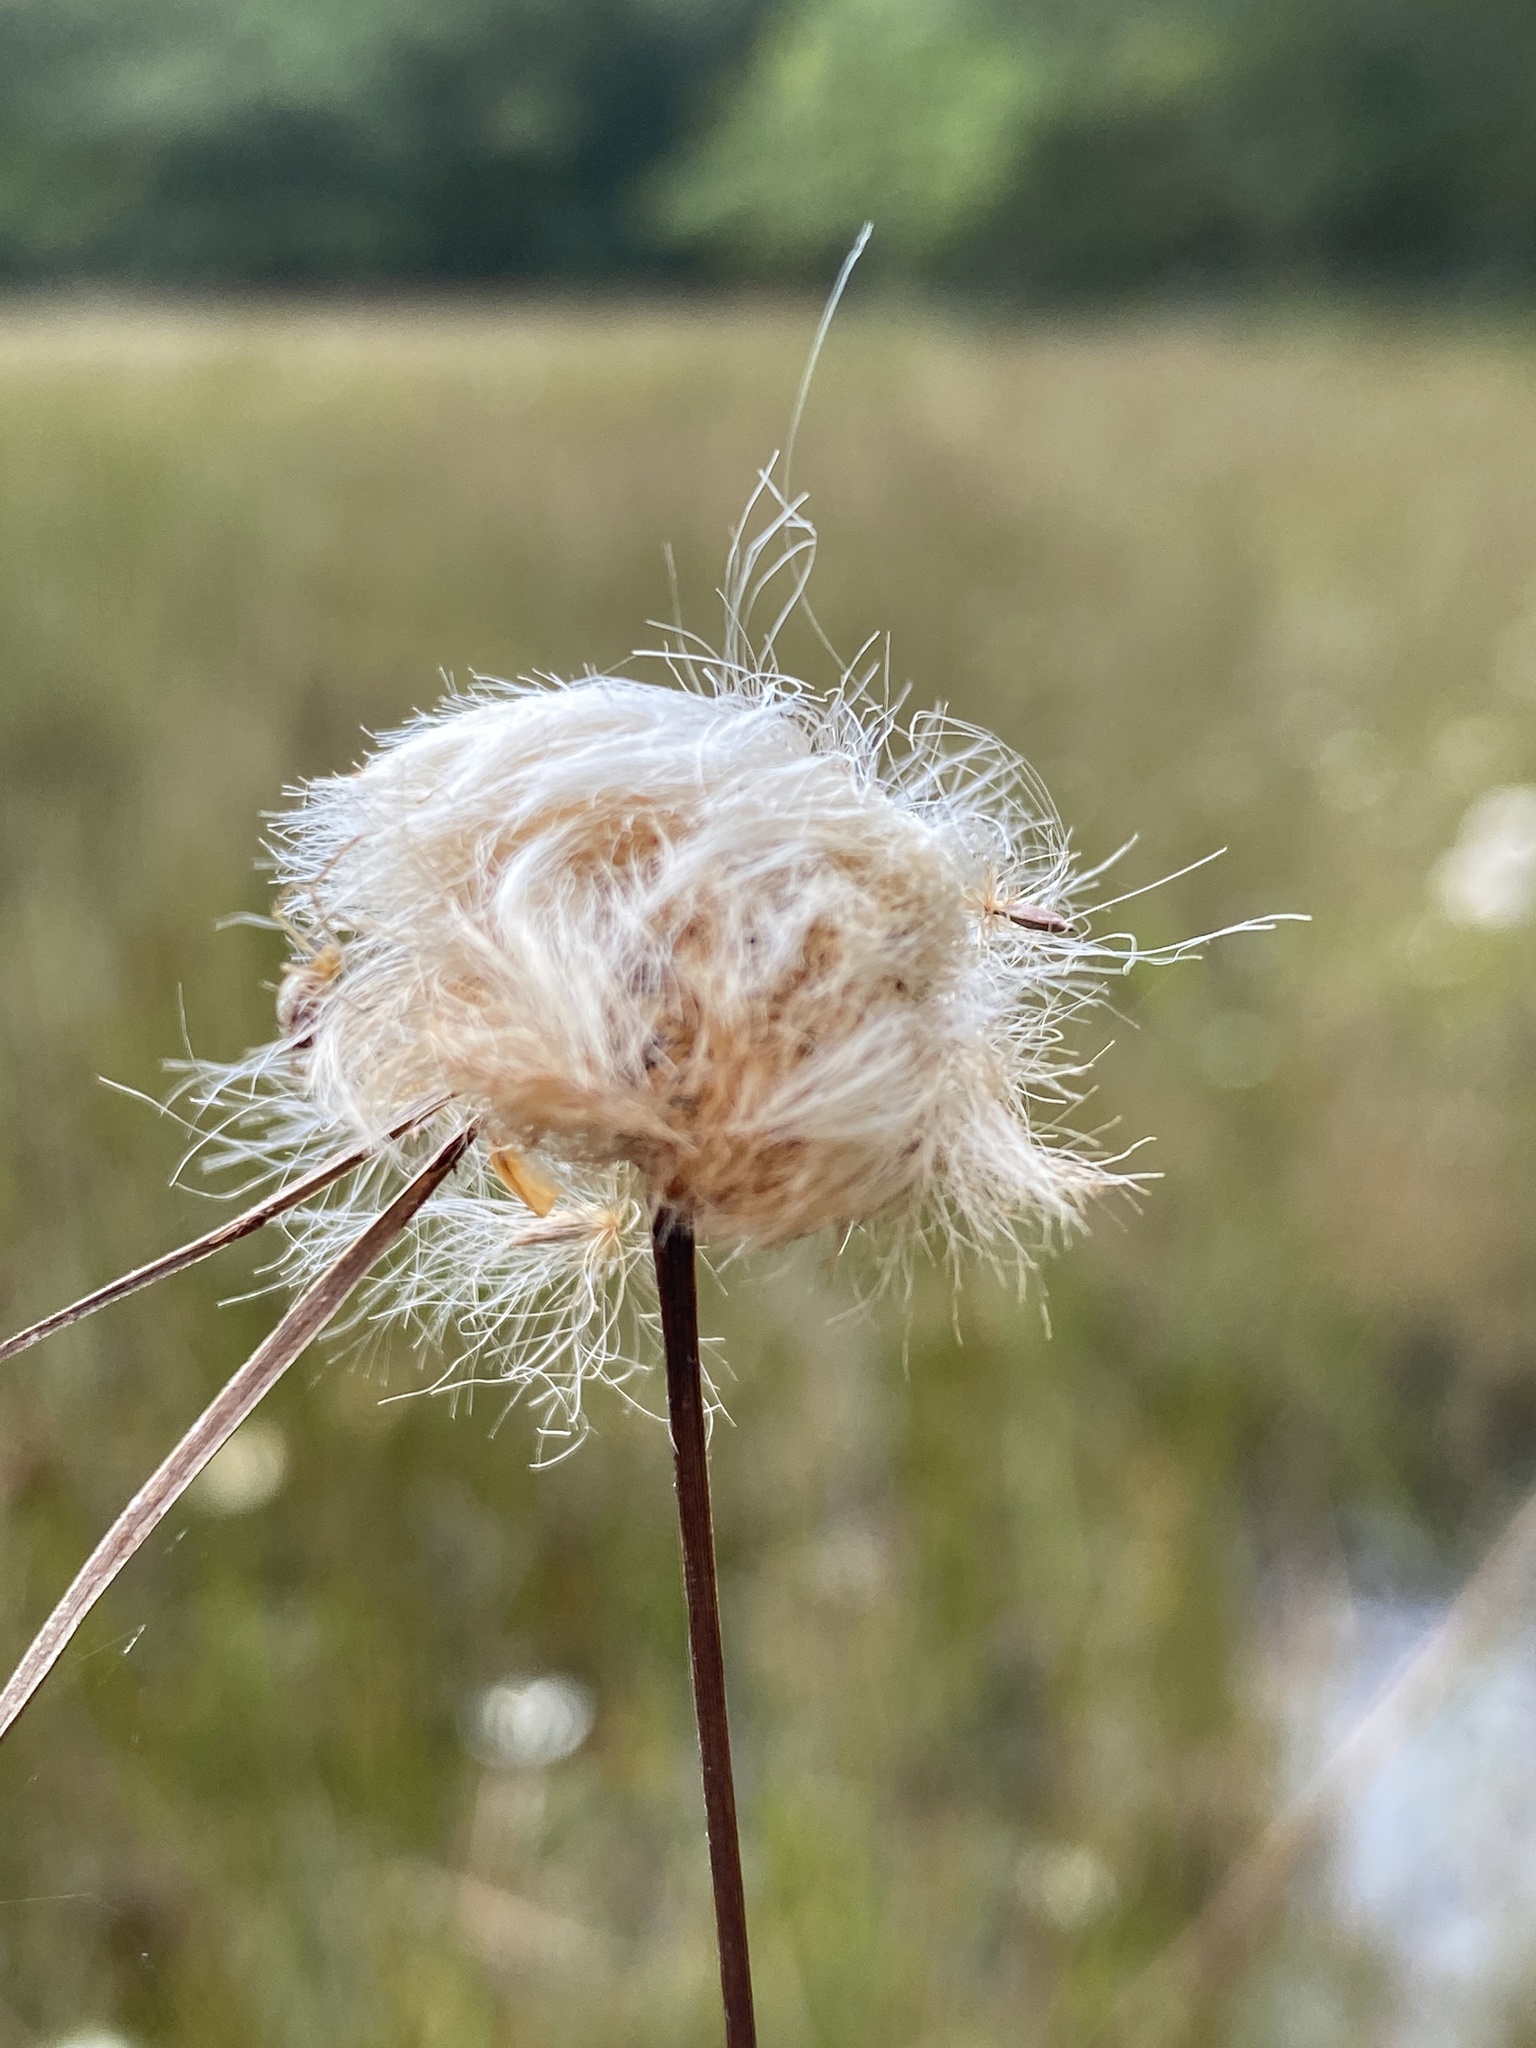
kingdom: Plantae
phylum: Tracheophyta
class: Liliopsida
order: Poales
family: Cyperaceae
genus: Eriophorum
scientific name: Eriophorum virginicum
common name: Tawny cottongrass
